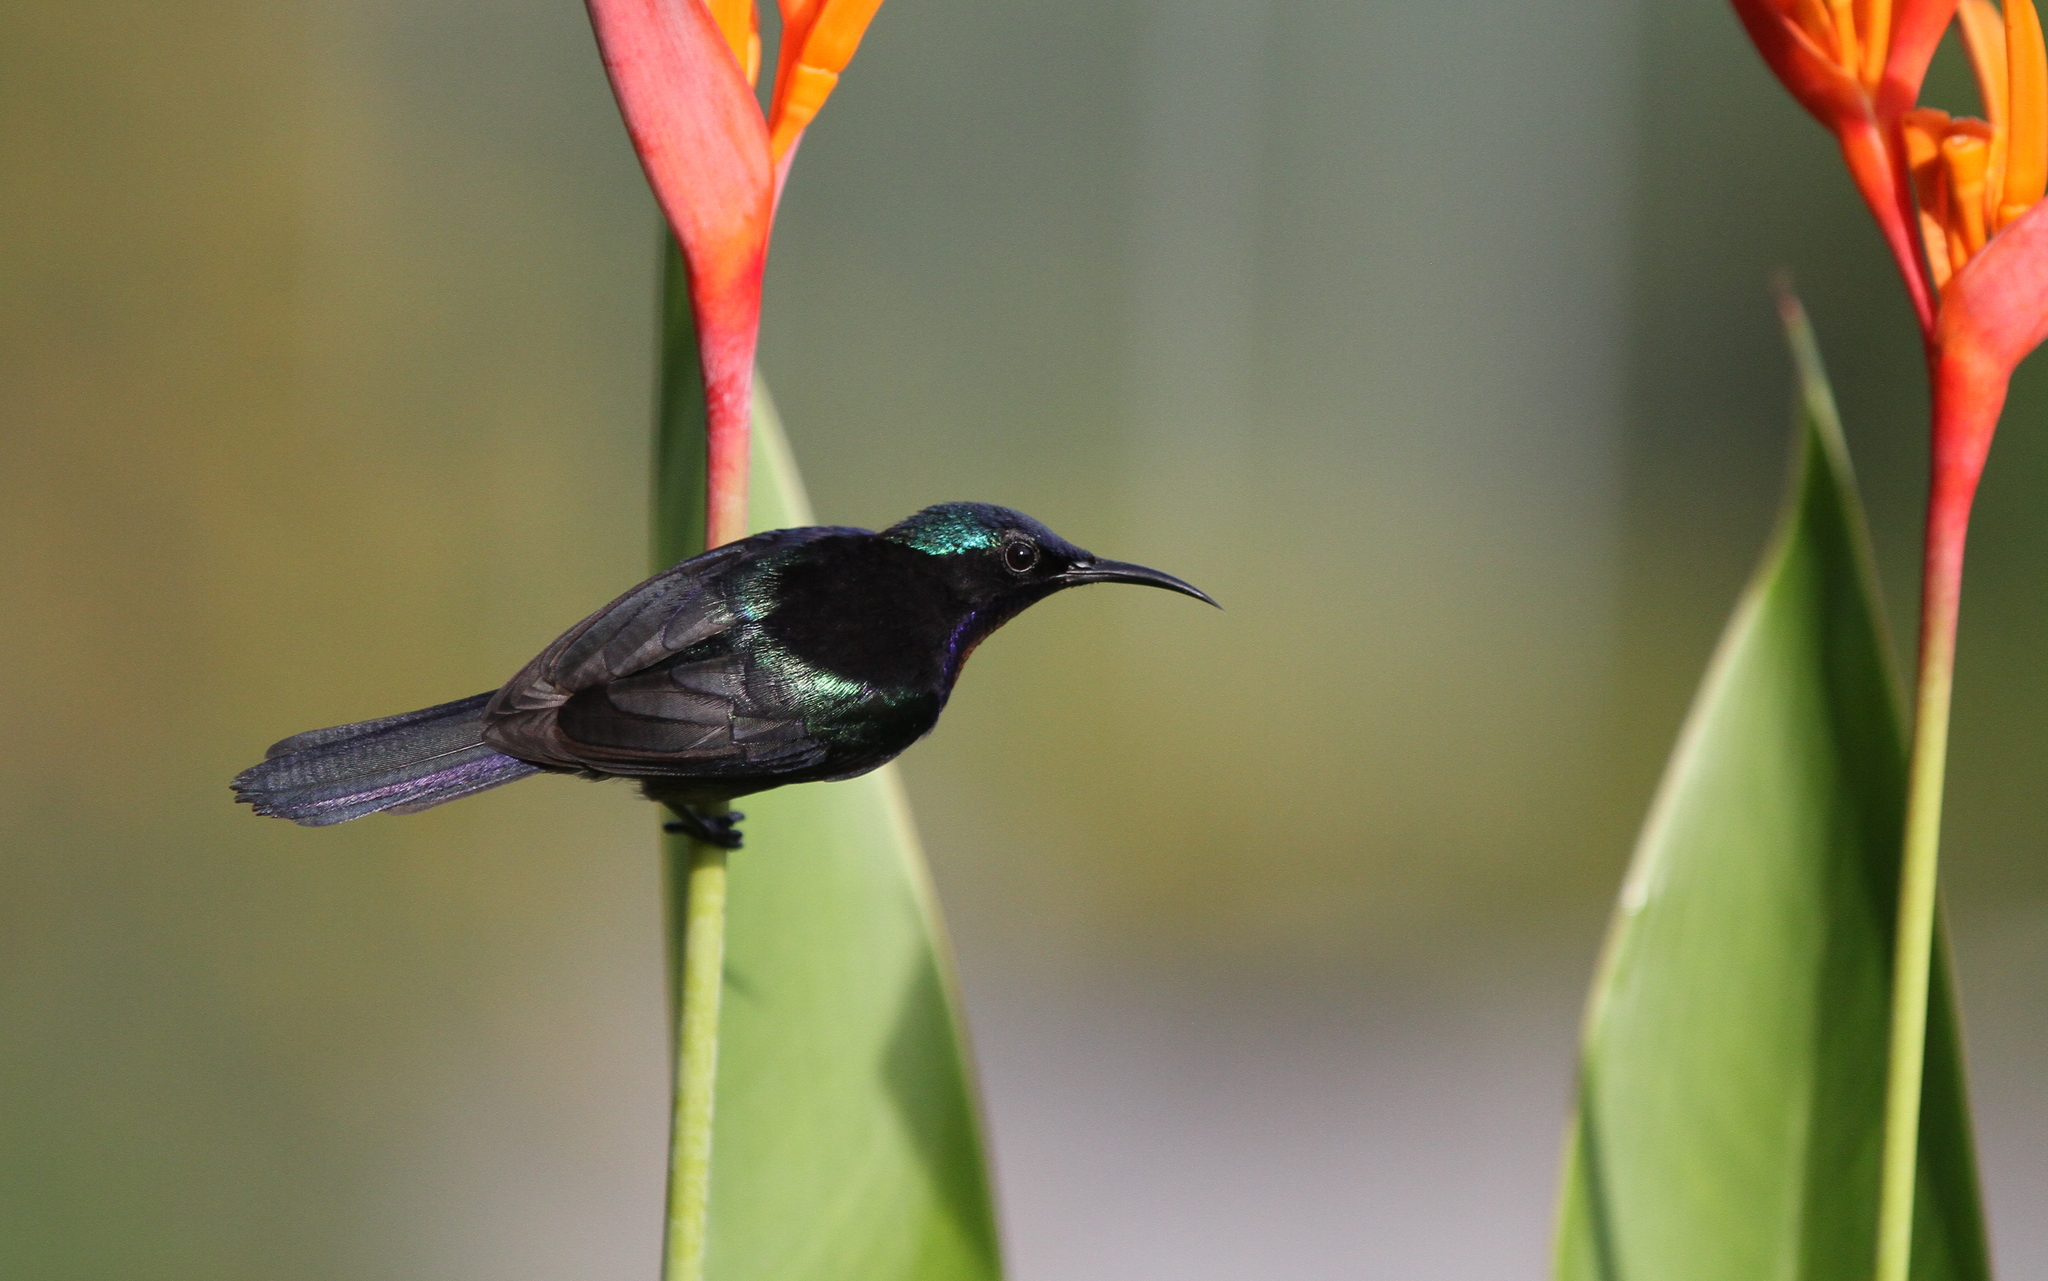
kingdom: Animalia
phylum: Chordata
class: Aves
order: Passeriformes
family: Nectariniidae
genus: Leptocoma
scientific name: Leptocoma calcostetha
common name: Copper-throated sunbird
